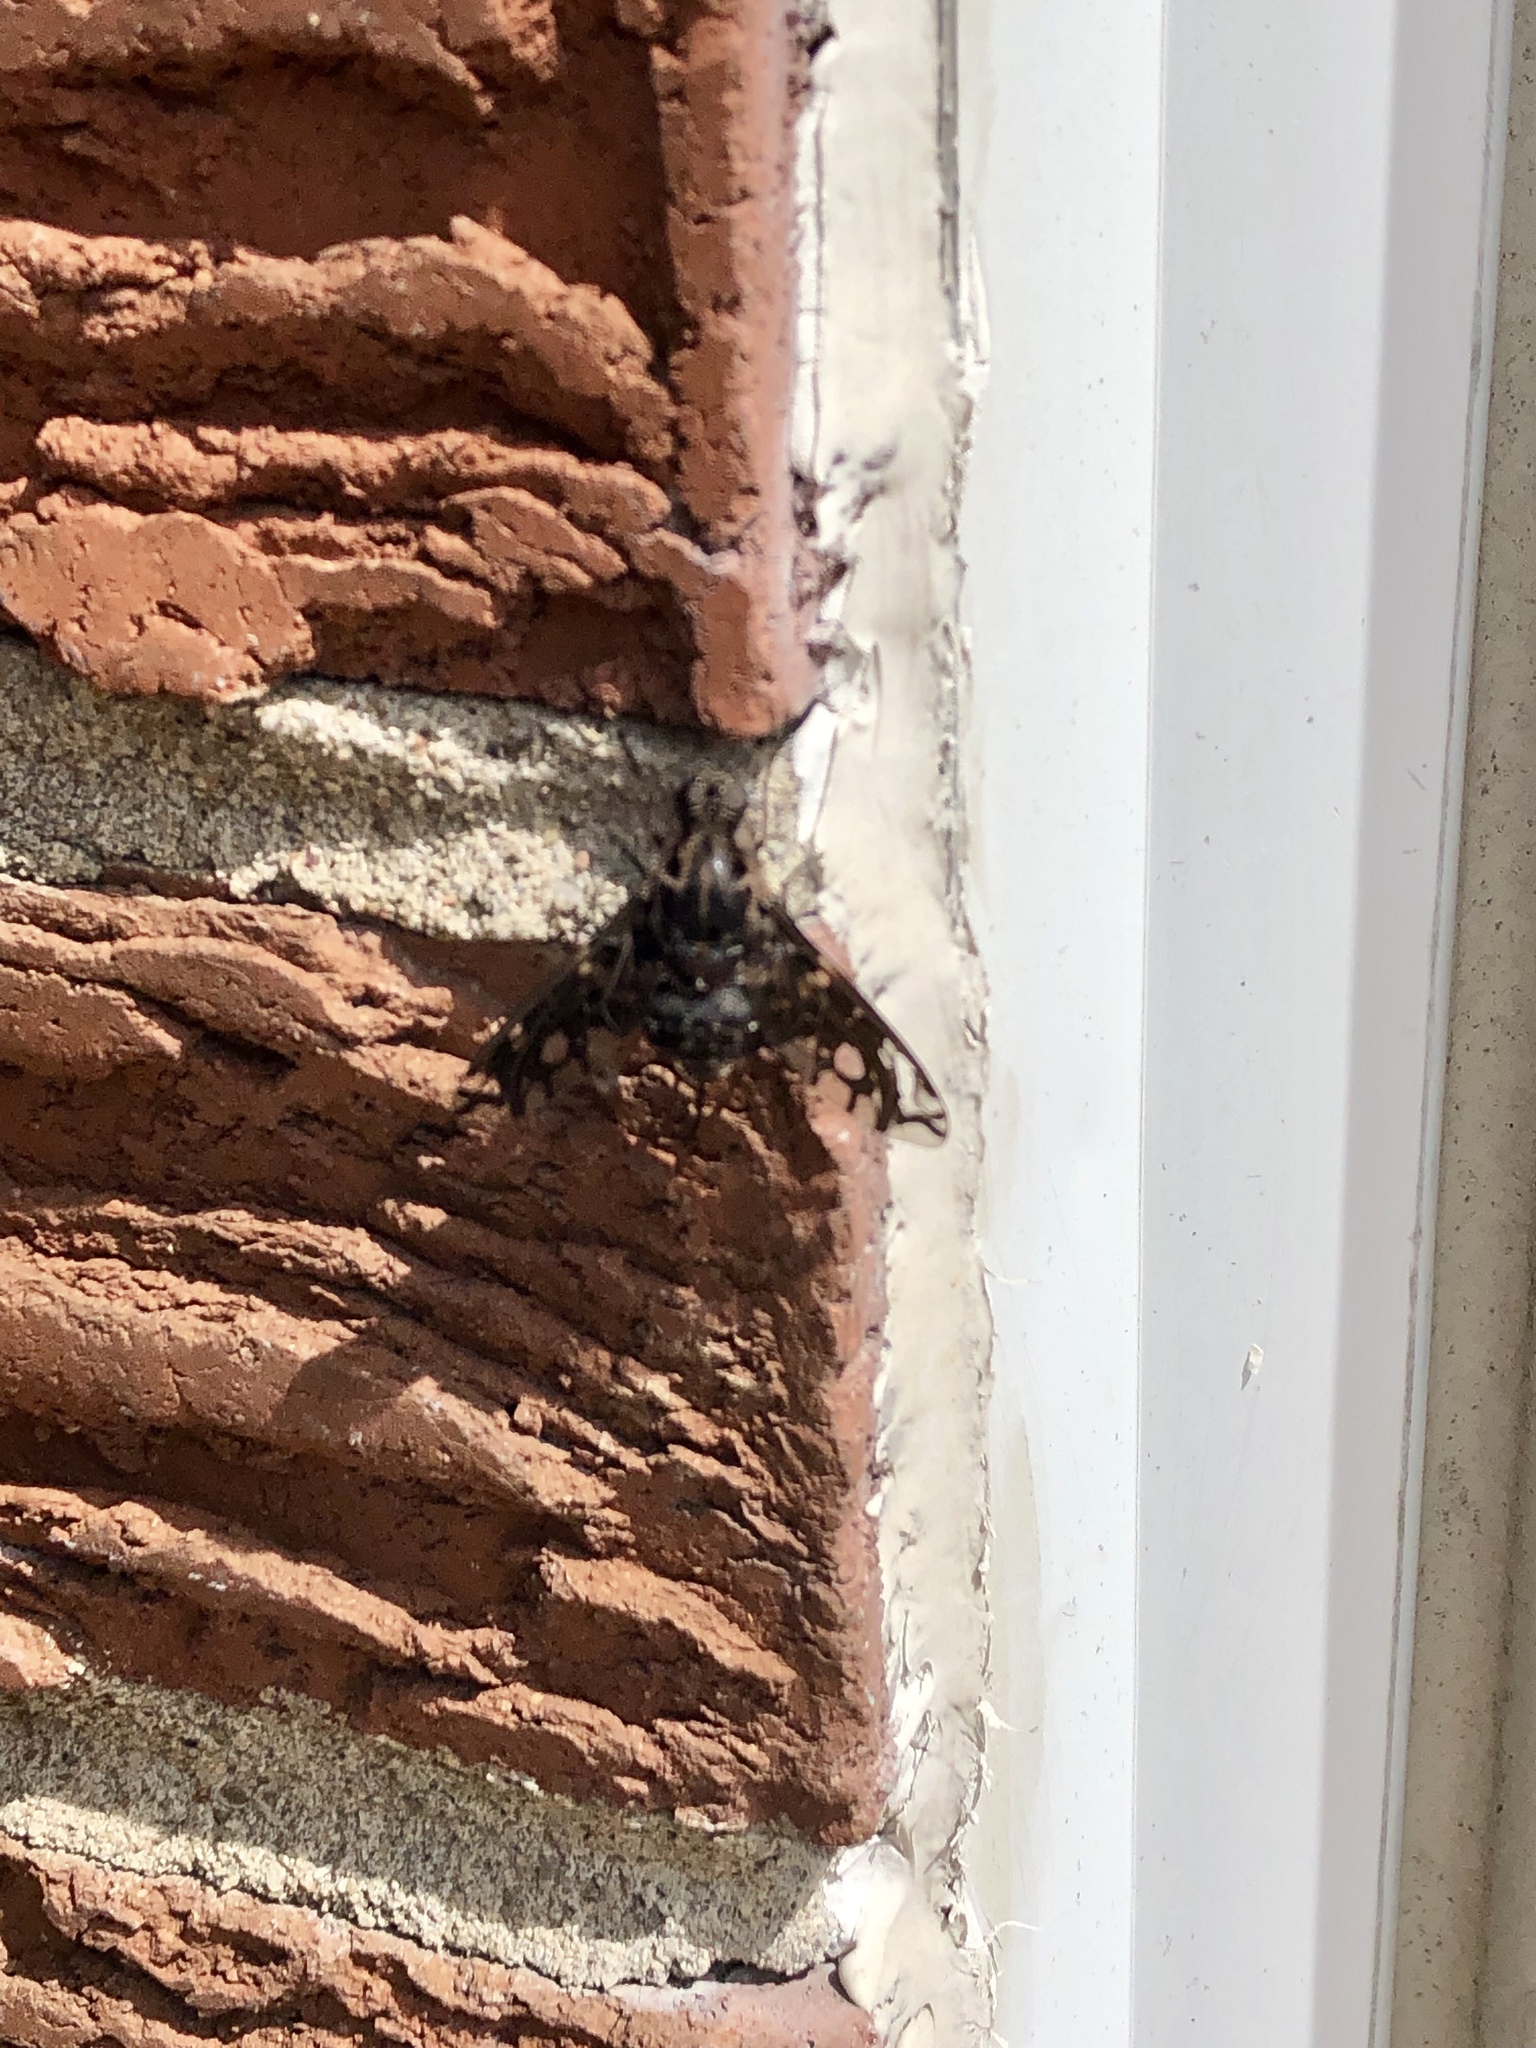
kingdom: Animalia
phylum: Arthropoda
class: Insecta
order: Diptera
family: Bombyliidae
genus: Xenox
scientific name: Xenox tigrinus
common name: Tiger bee fly
